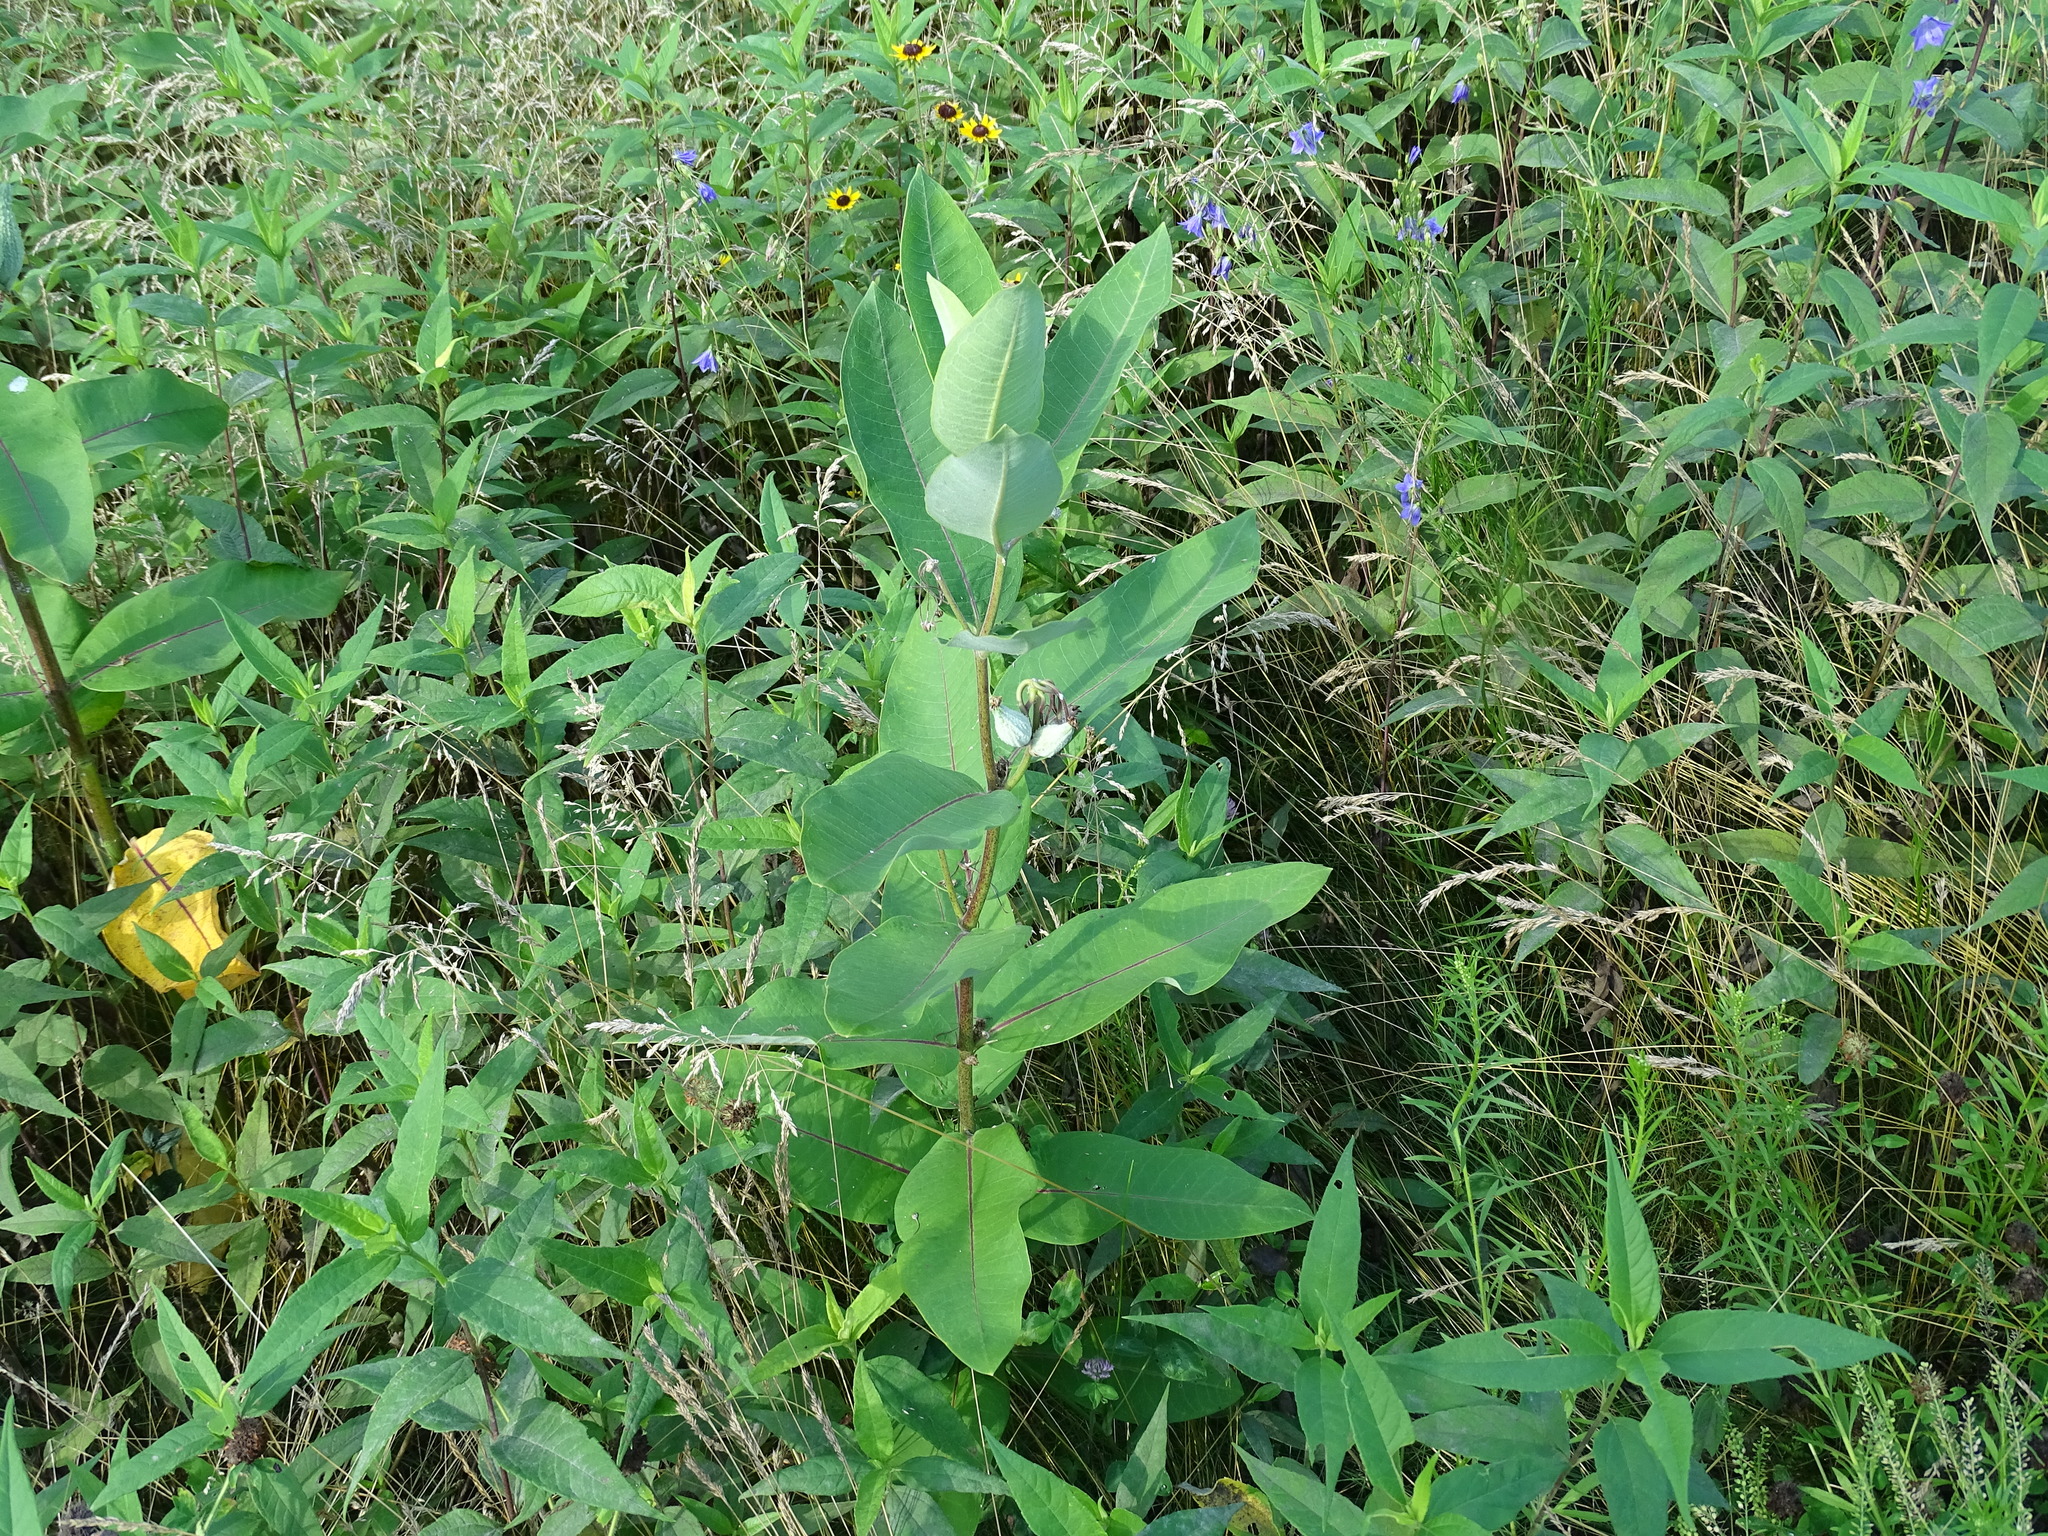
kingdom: Plantae
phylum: Tracheophyta
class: Magnoliopsida
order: Gentianales
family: Apocynaceae
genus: Asclepias
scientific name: Asclepias syriaca
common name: Common milkweed
